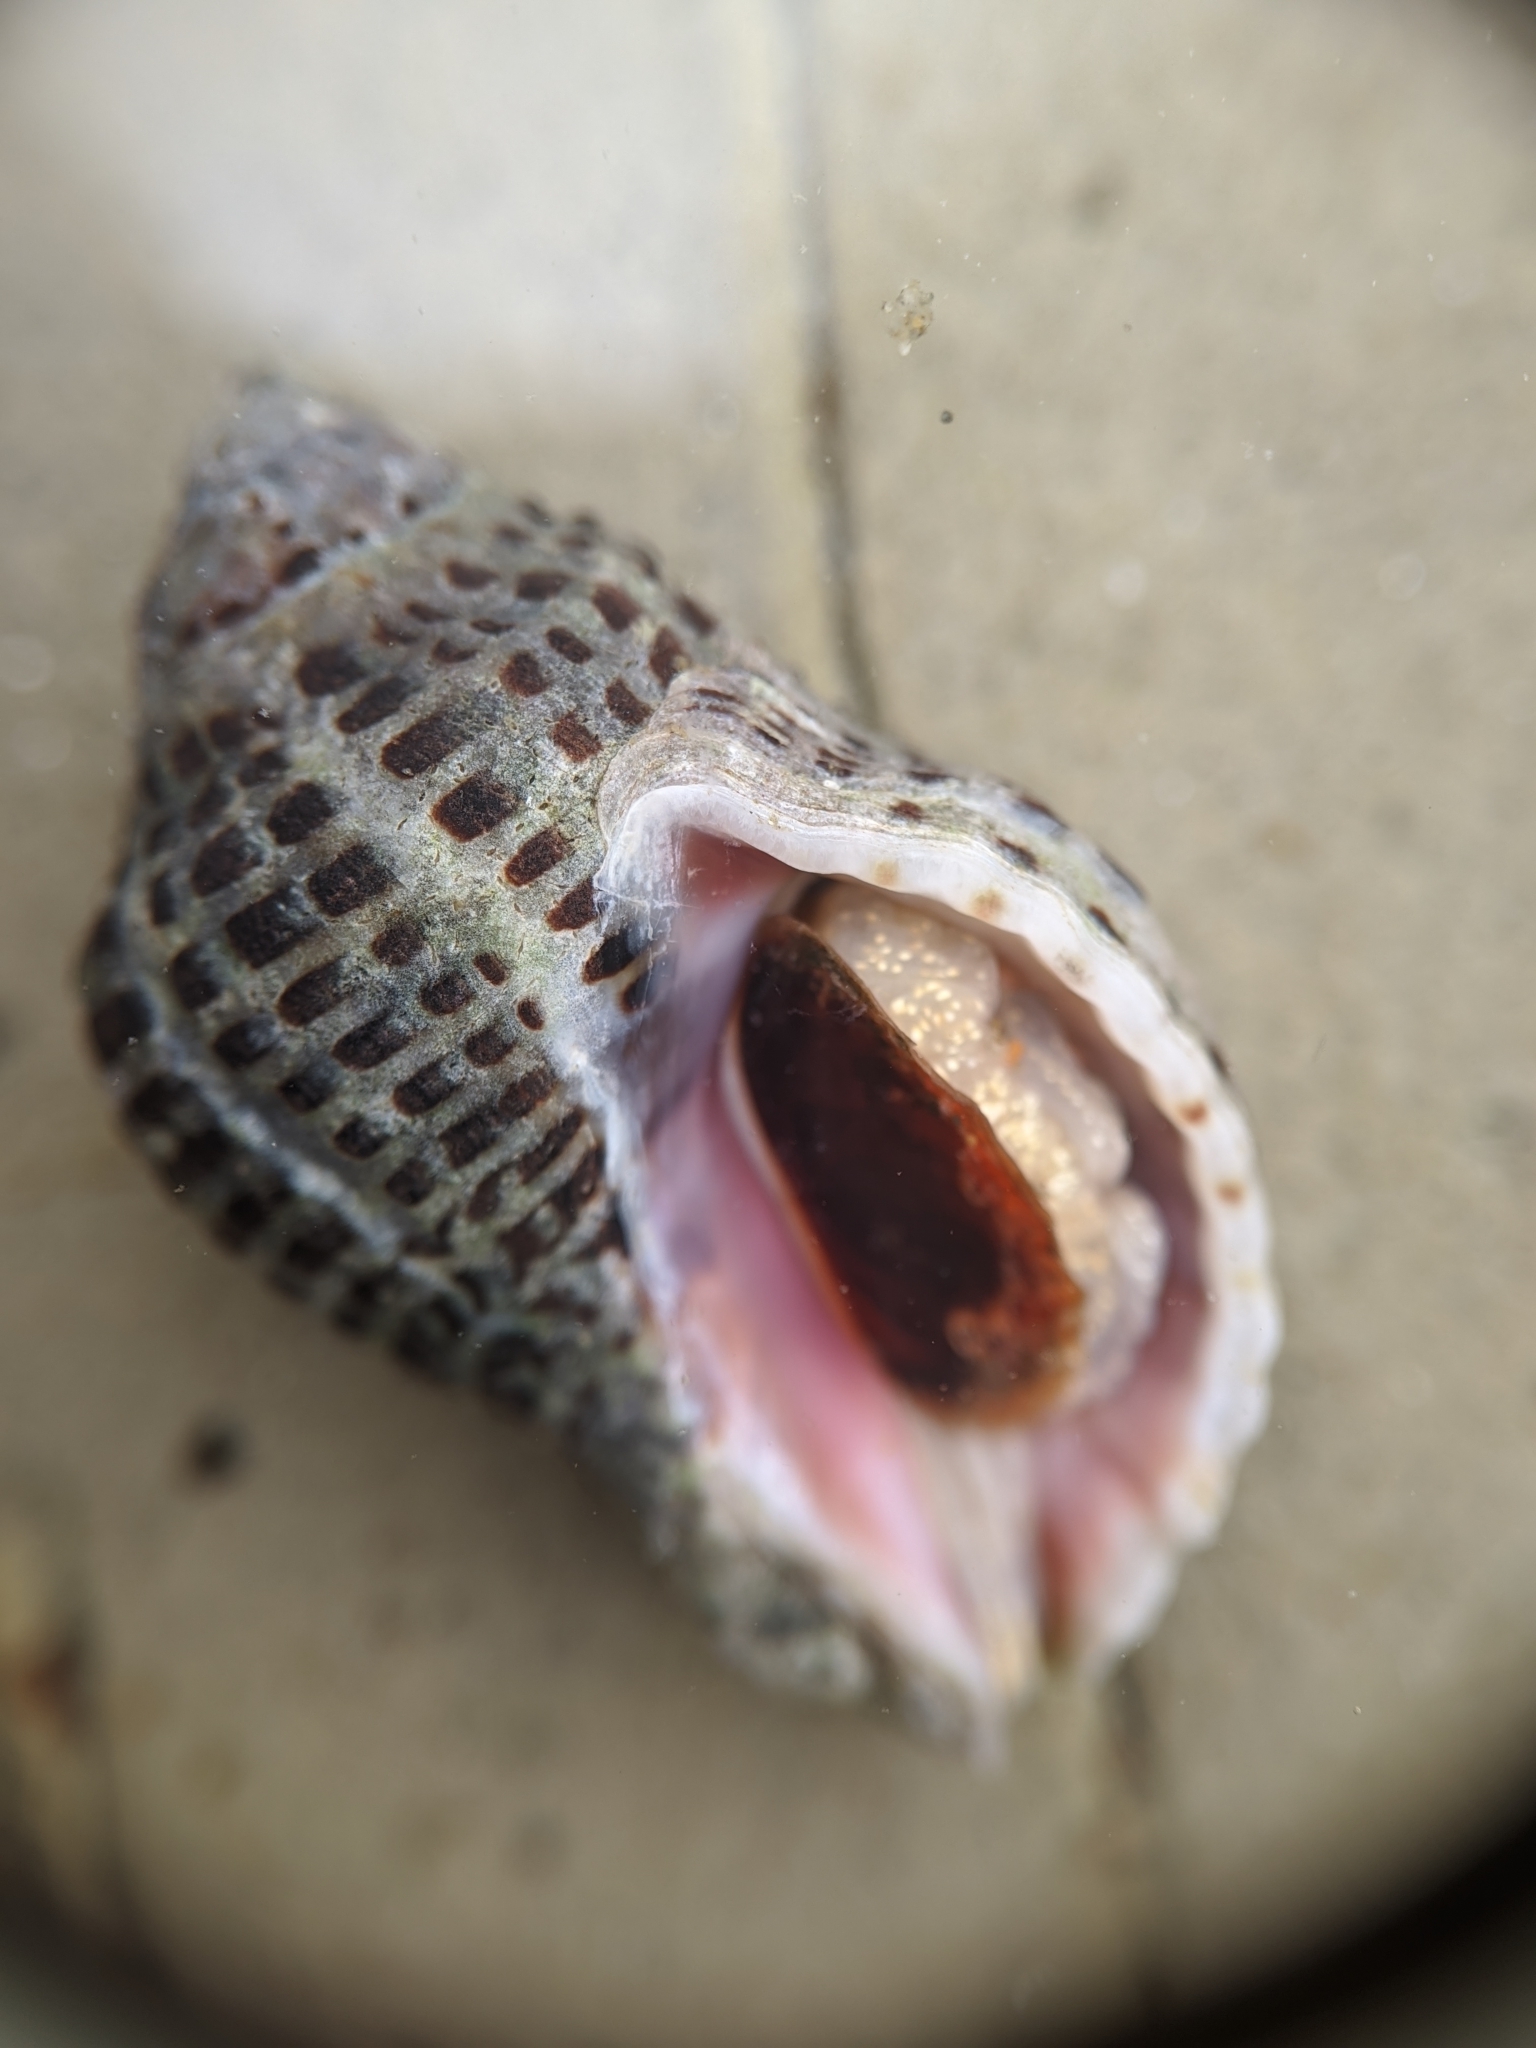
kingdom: Animalia
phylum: Mollusca
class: Gastropoda
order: Neogastropoda
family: Muricidae
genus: Acanthinucella
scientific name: Acanthinucella punctulata
